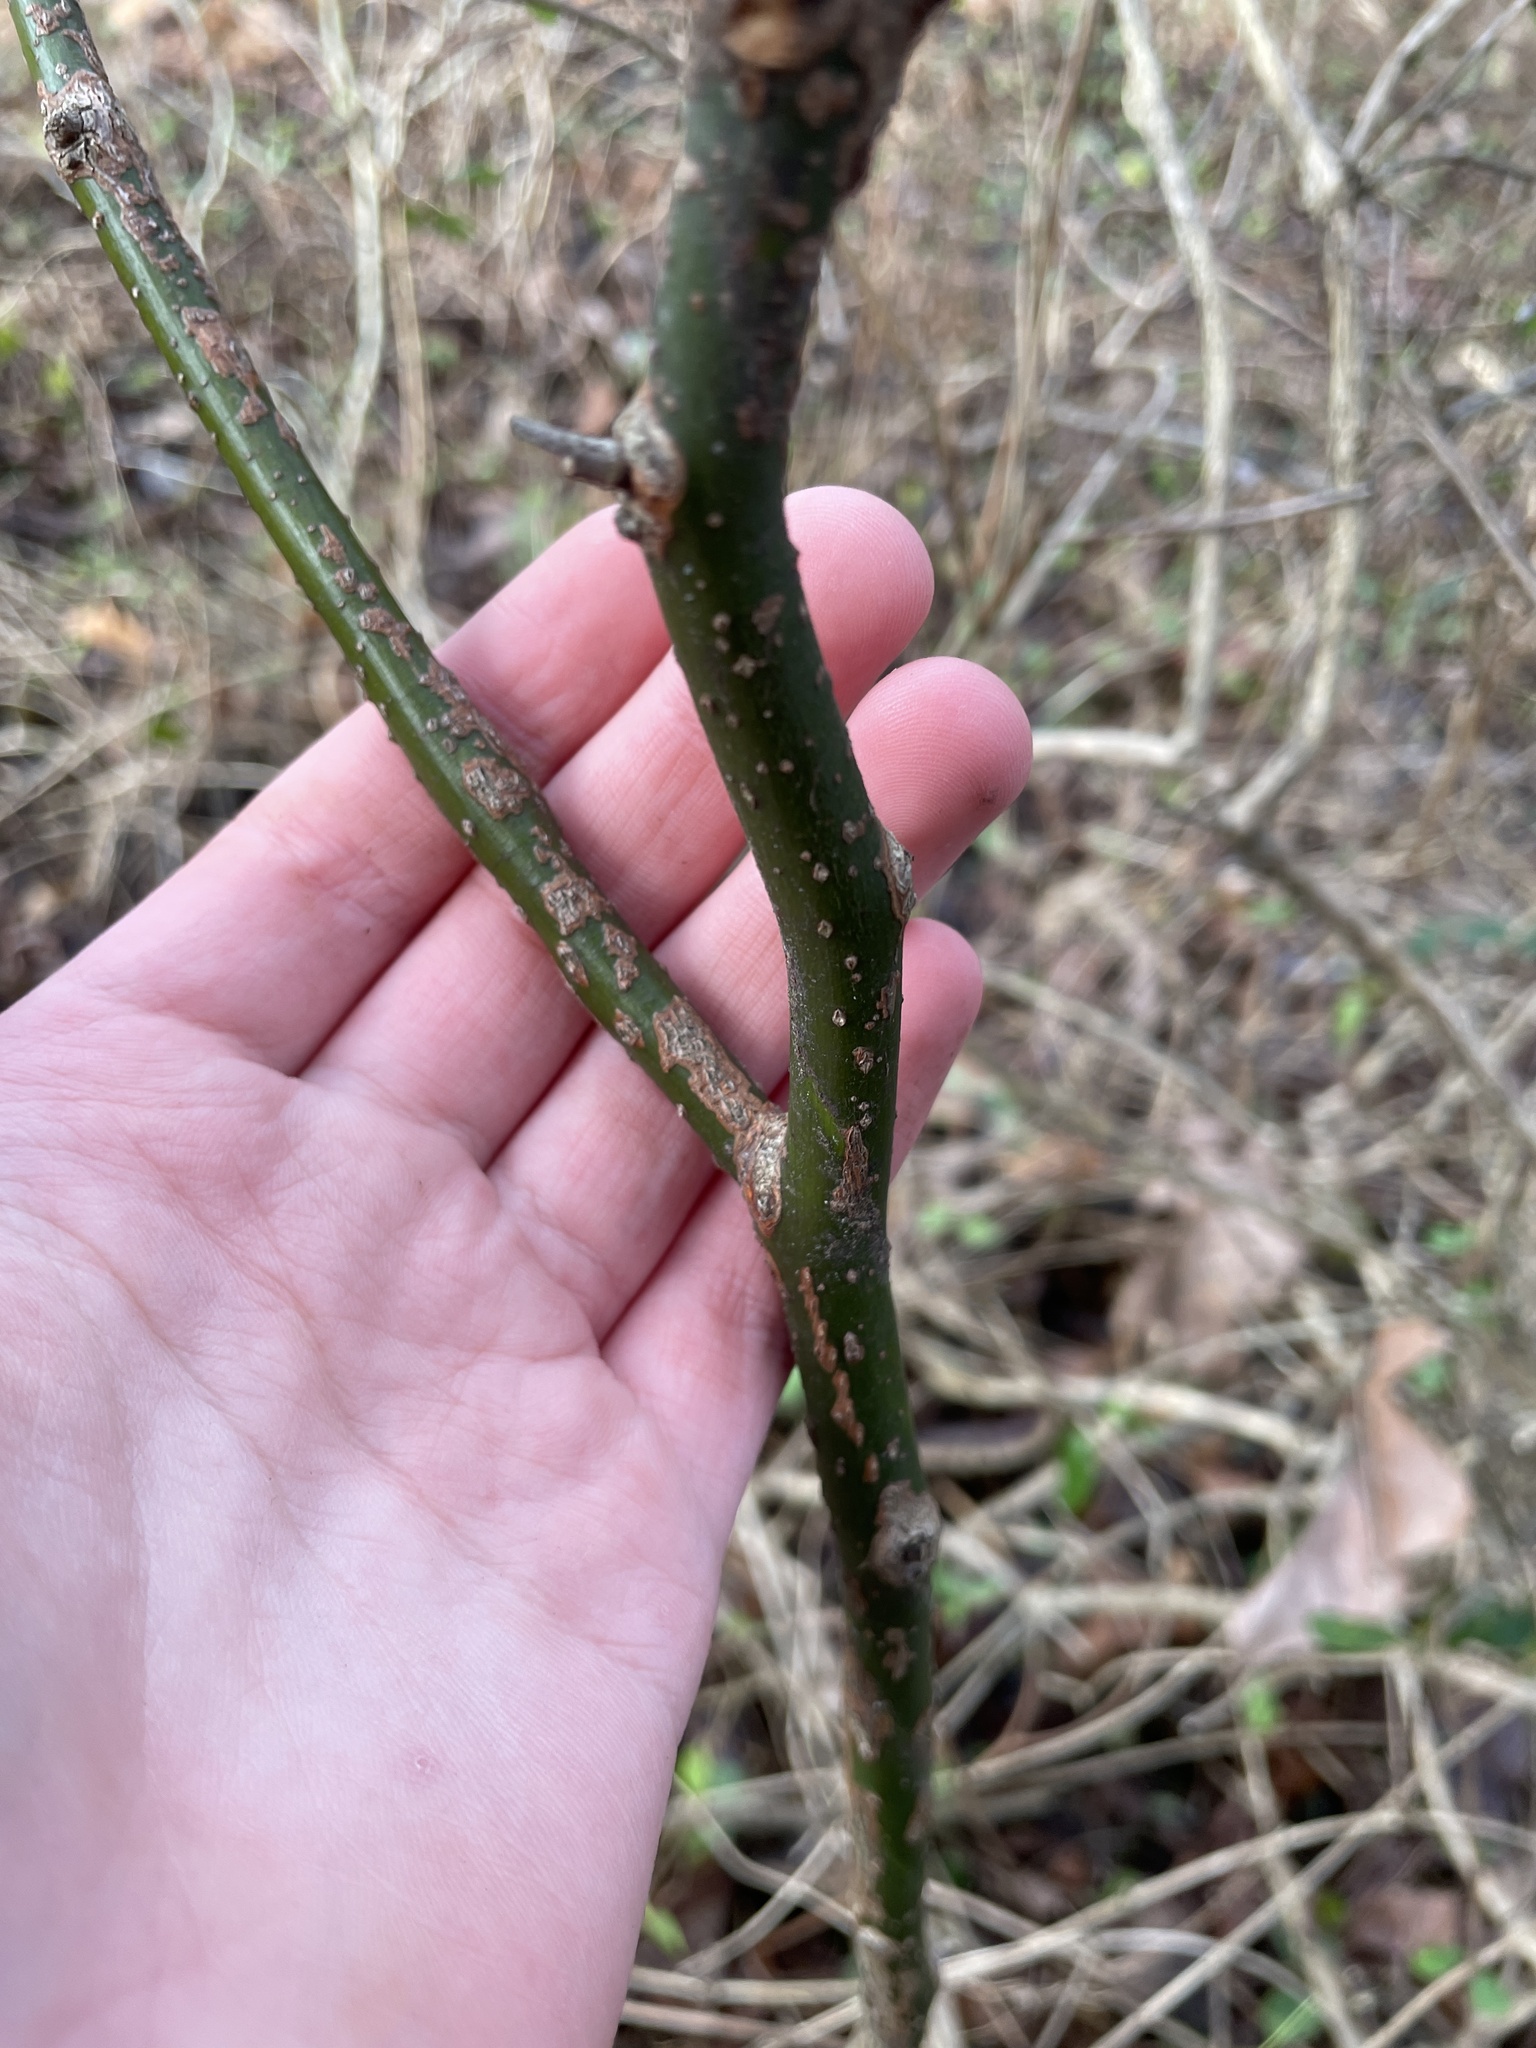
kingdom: Plantae
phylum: Tracheophyta
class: Magnoliopsida
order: Laurales
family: Lauraceae
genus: Sassafras
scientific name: Sassafras albidum
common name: Sassafras
